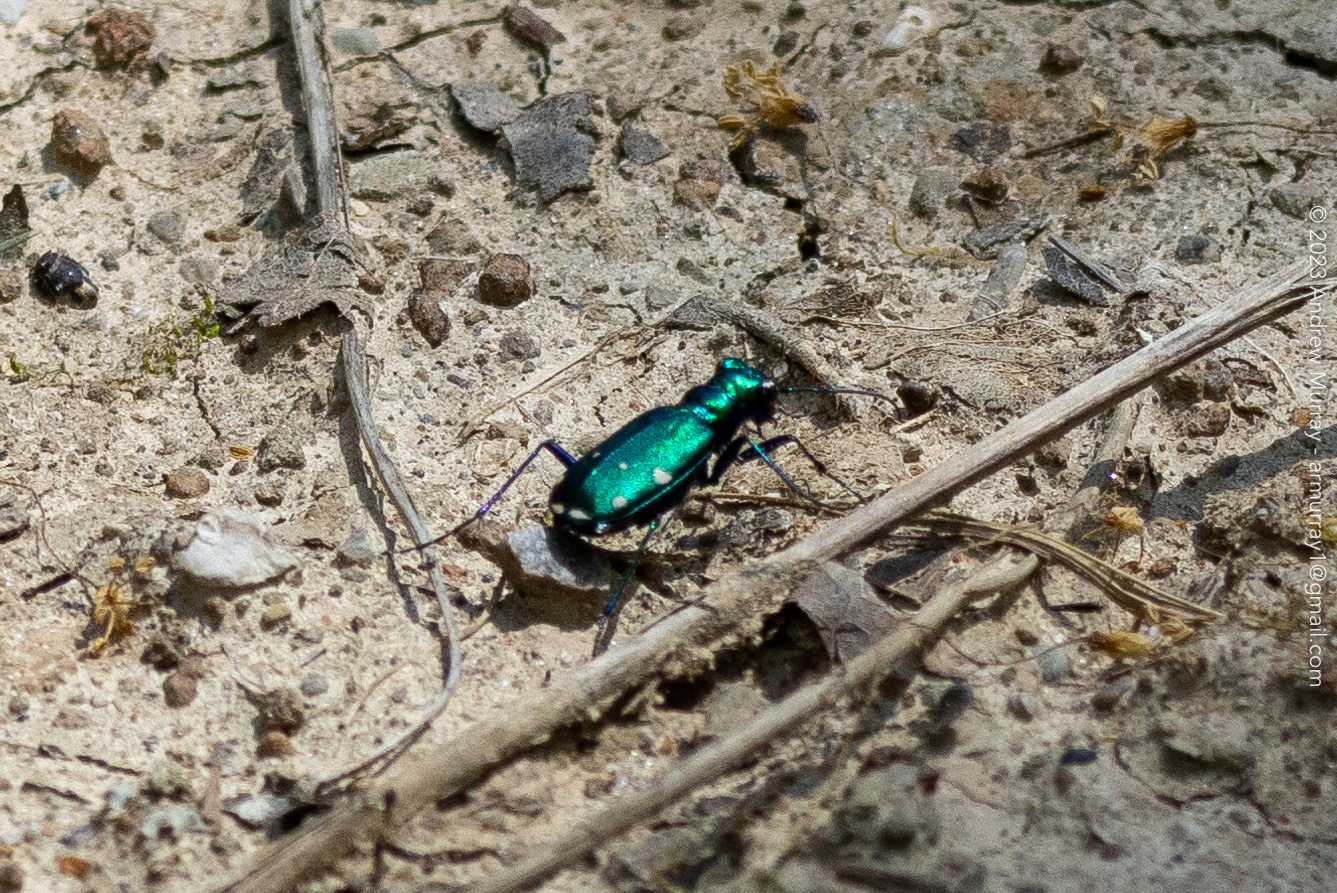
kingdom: Animalia
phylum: Arthropoda
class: Insecta
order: Coleoptera
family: Carabidae
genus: Cicindela
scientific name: Cicindela sexguttata
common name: Six-spotted tiger beetle
